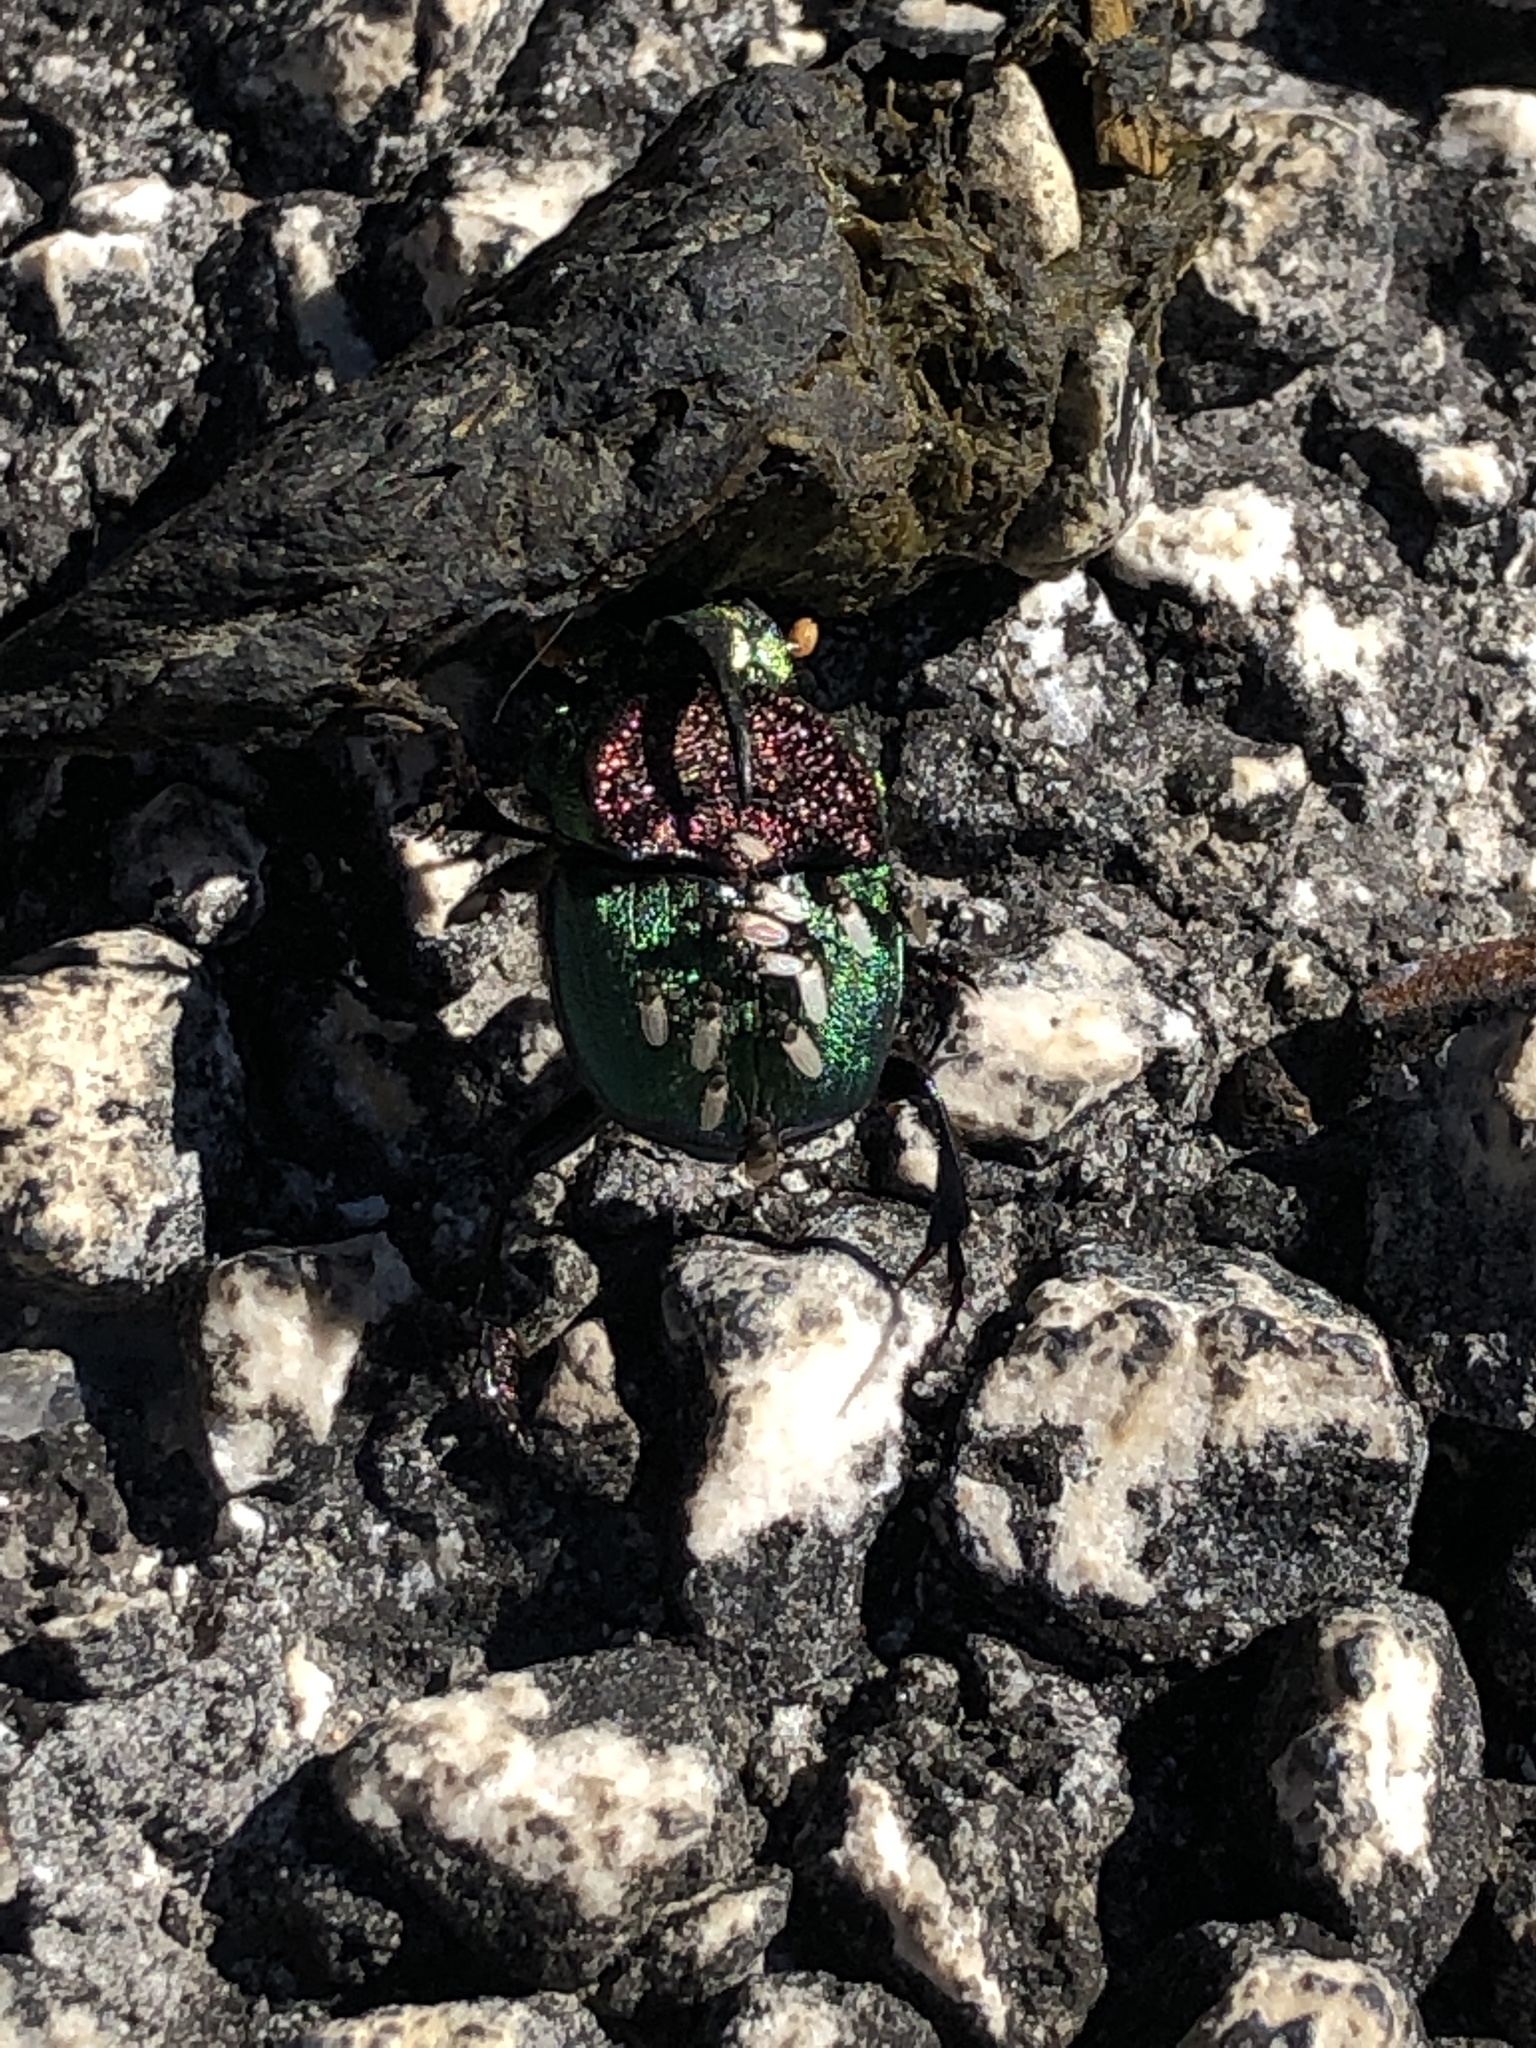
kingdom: Animalia
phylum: Arthropoda
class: Insecta
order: Coleoptera
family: Scarabaeidae
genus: Phanaeus
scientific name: Phanaeus difformis
